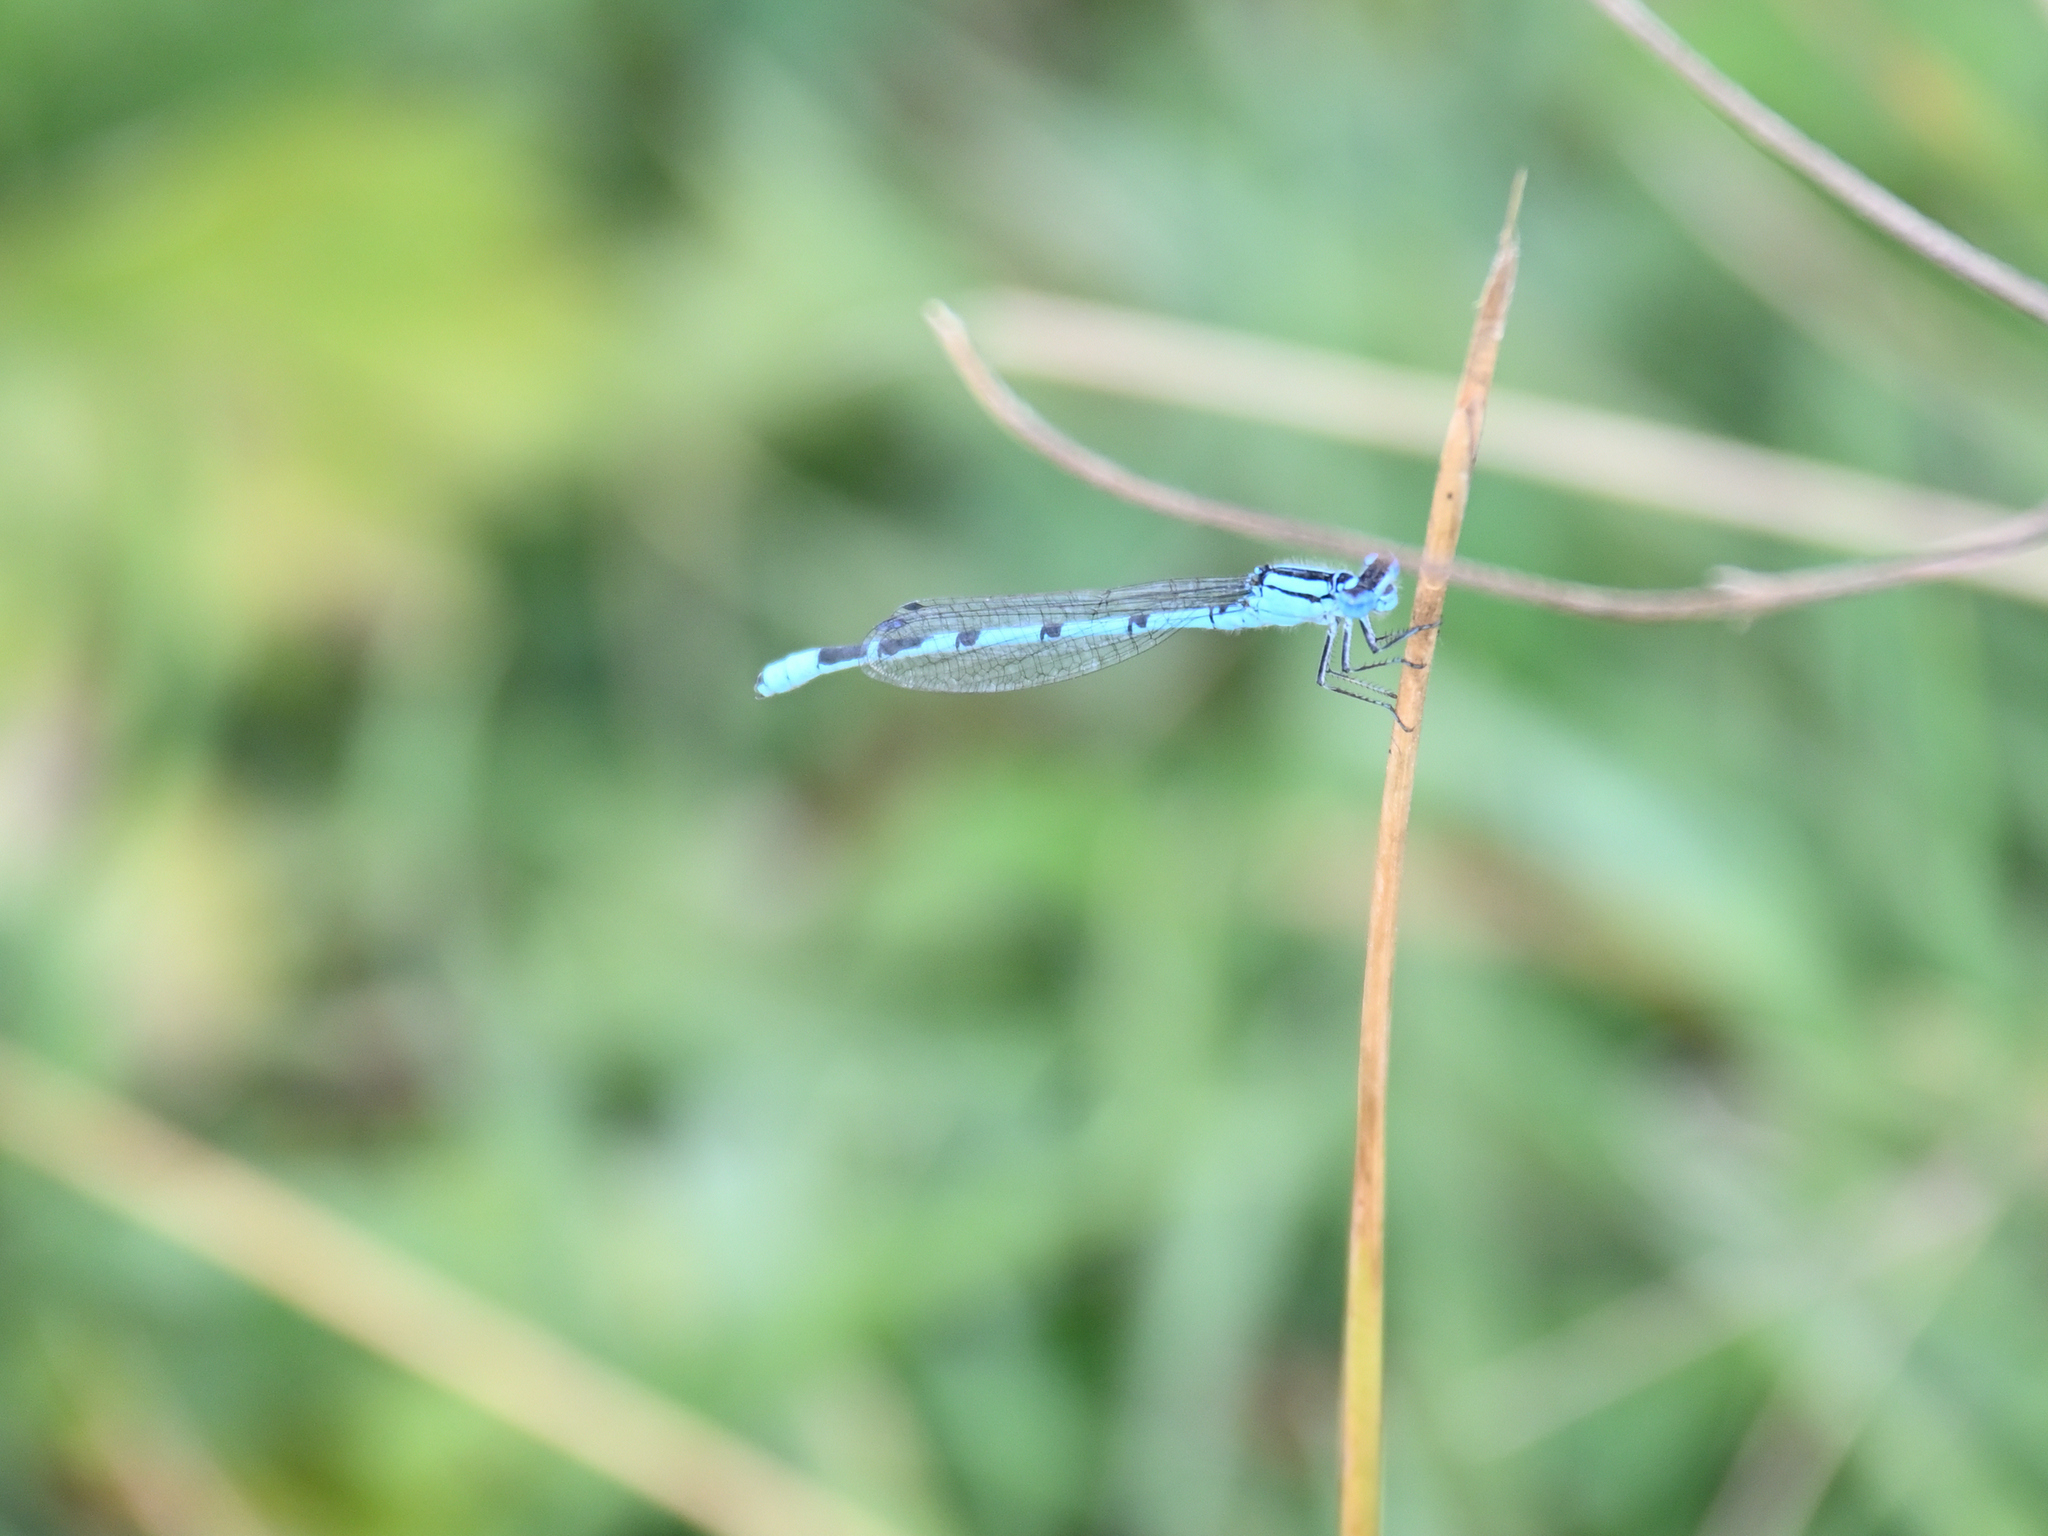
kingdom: Animalia
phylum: Arthropoda
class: Insecta
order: Odonata
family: Coenagrionidae
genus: Enallagma
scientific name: Enallagma cyathigerum
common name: Common blue damselfly
